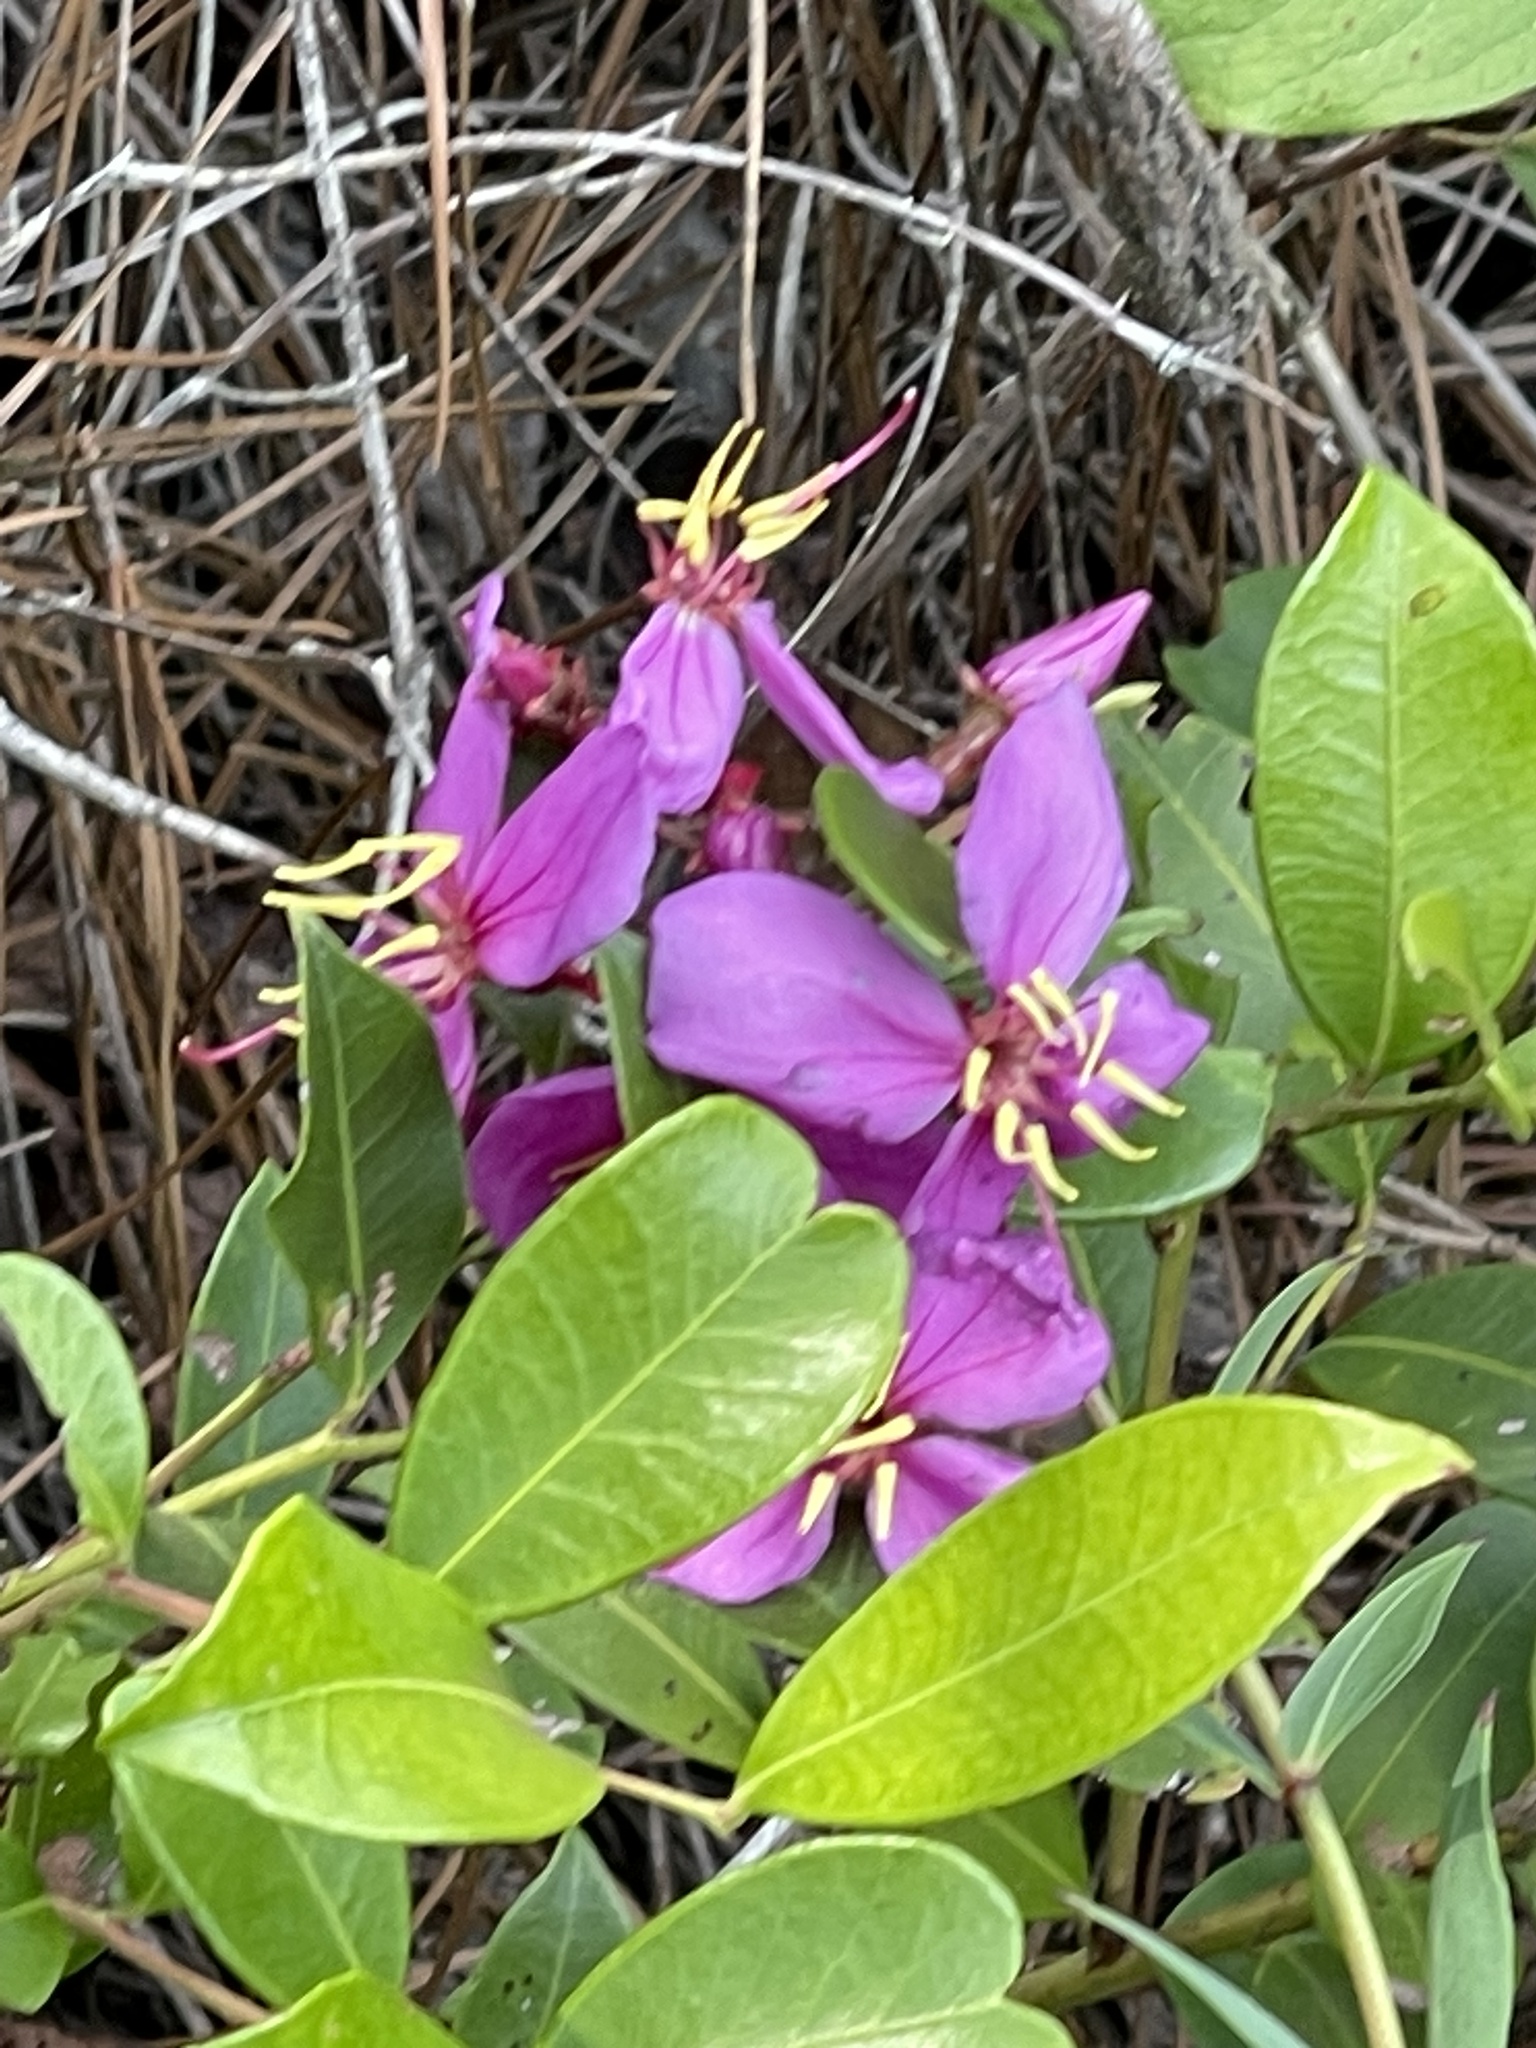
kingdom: Plantae
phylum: Tracheophyta
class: Magnoliopsida
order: Myrtales
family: Melastomataceae
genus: Rhexia
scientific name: Rhexia alifanus
